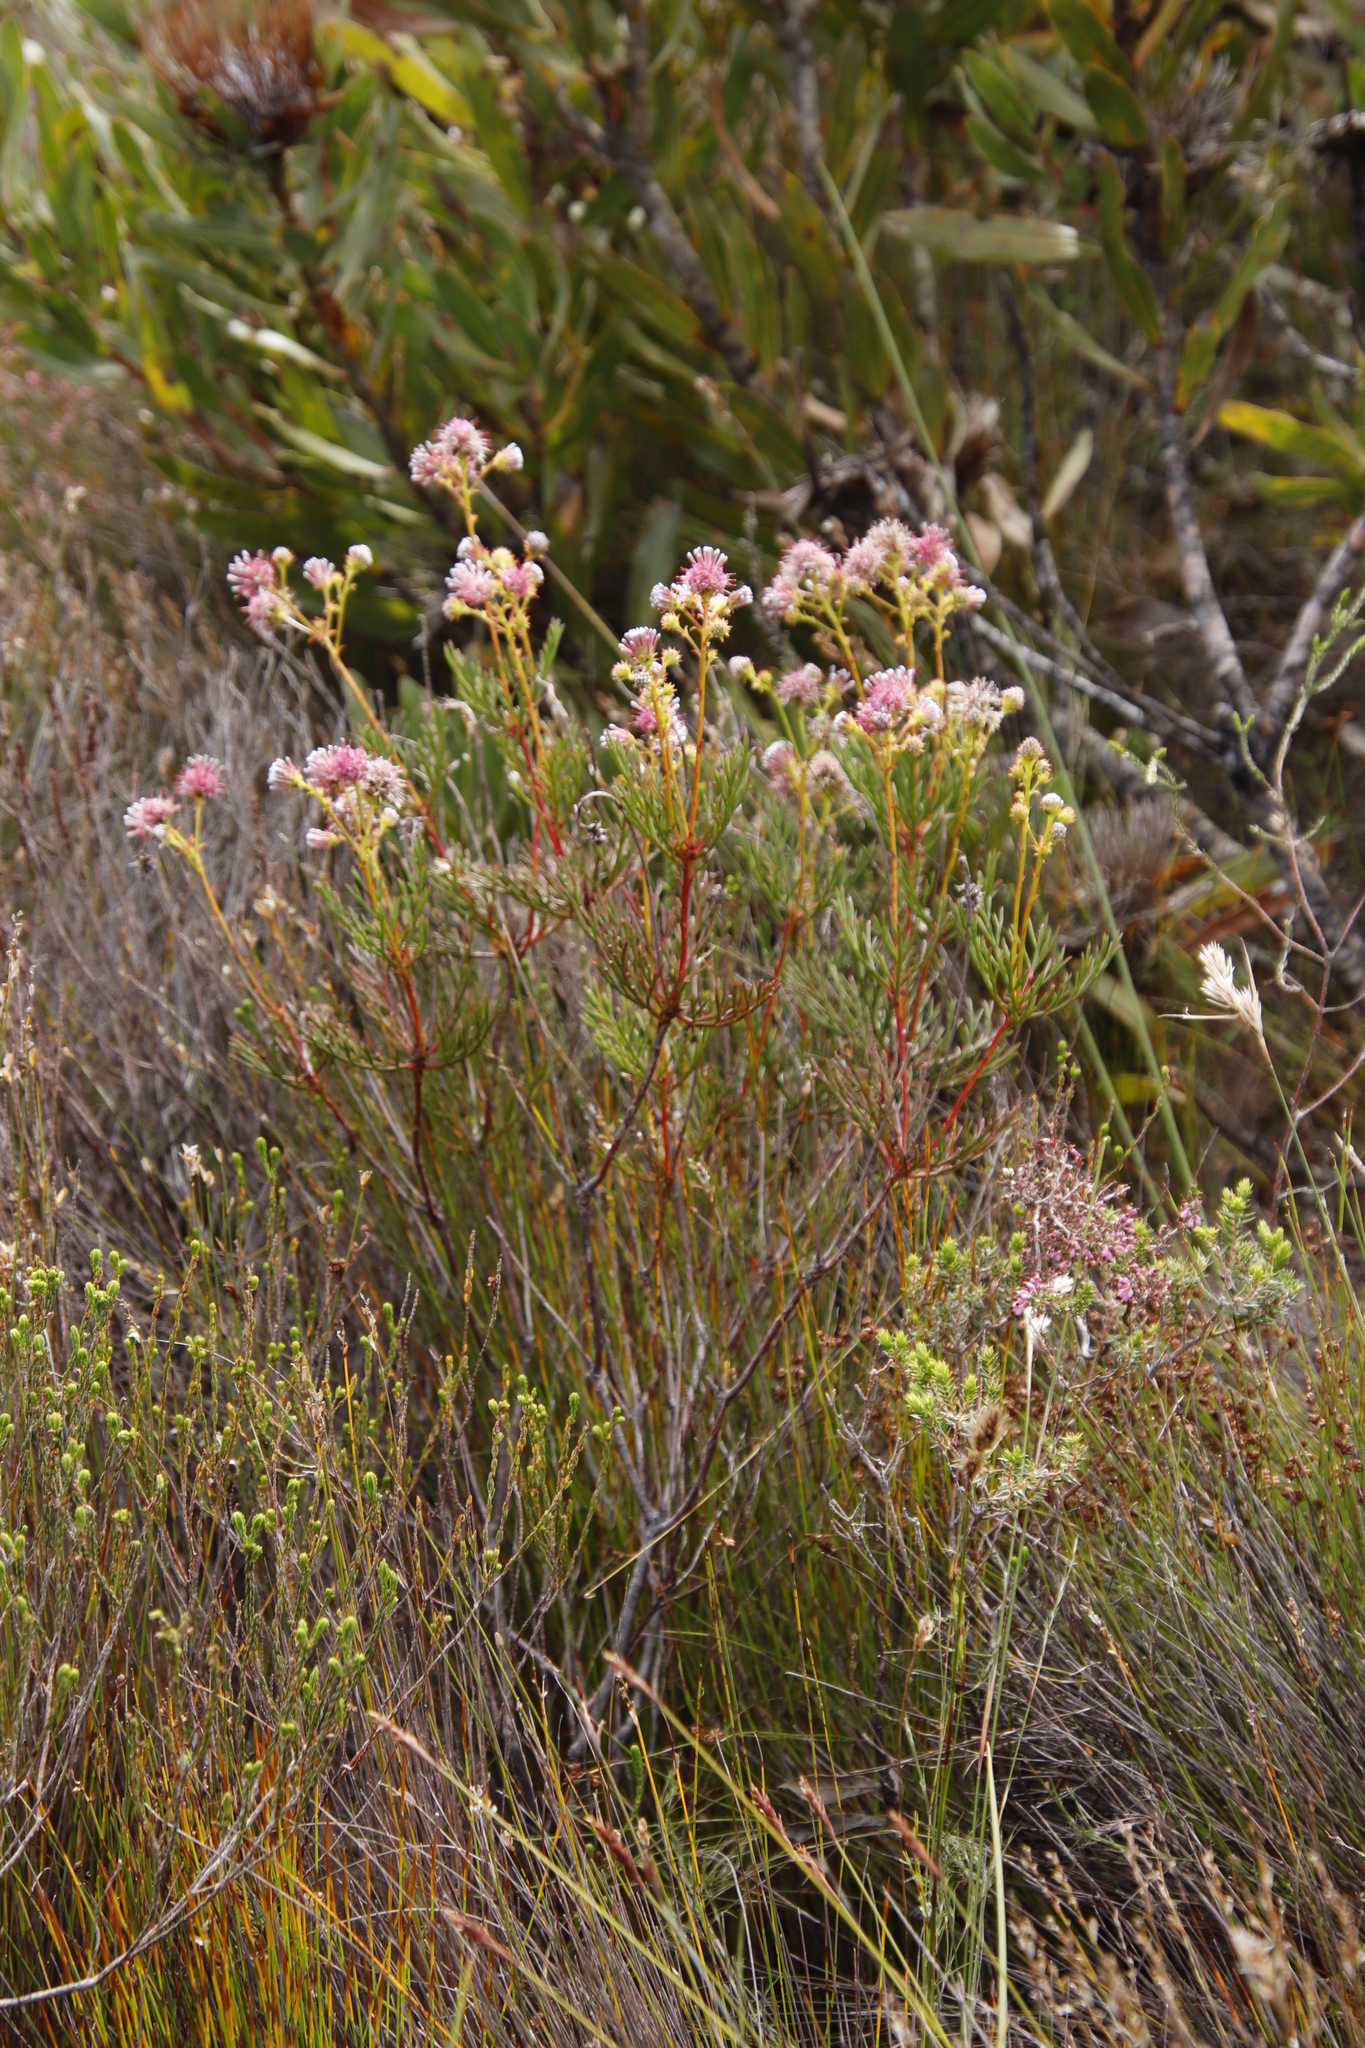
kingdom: Plantae
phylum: Tracheophyta
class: Magnoliopsida
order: Proteales
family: Proteaceae
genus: Serruria
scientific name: Serruria elongata
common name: Long-stalk spiderhead
